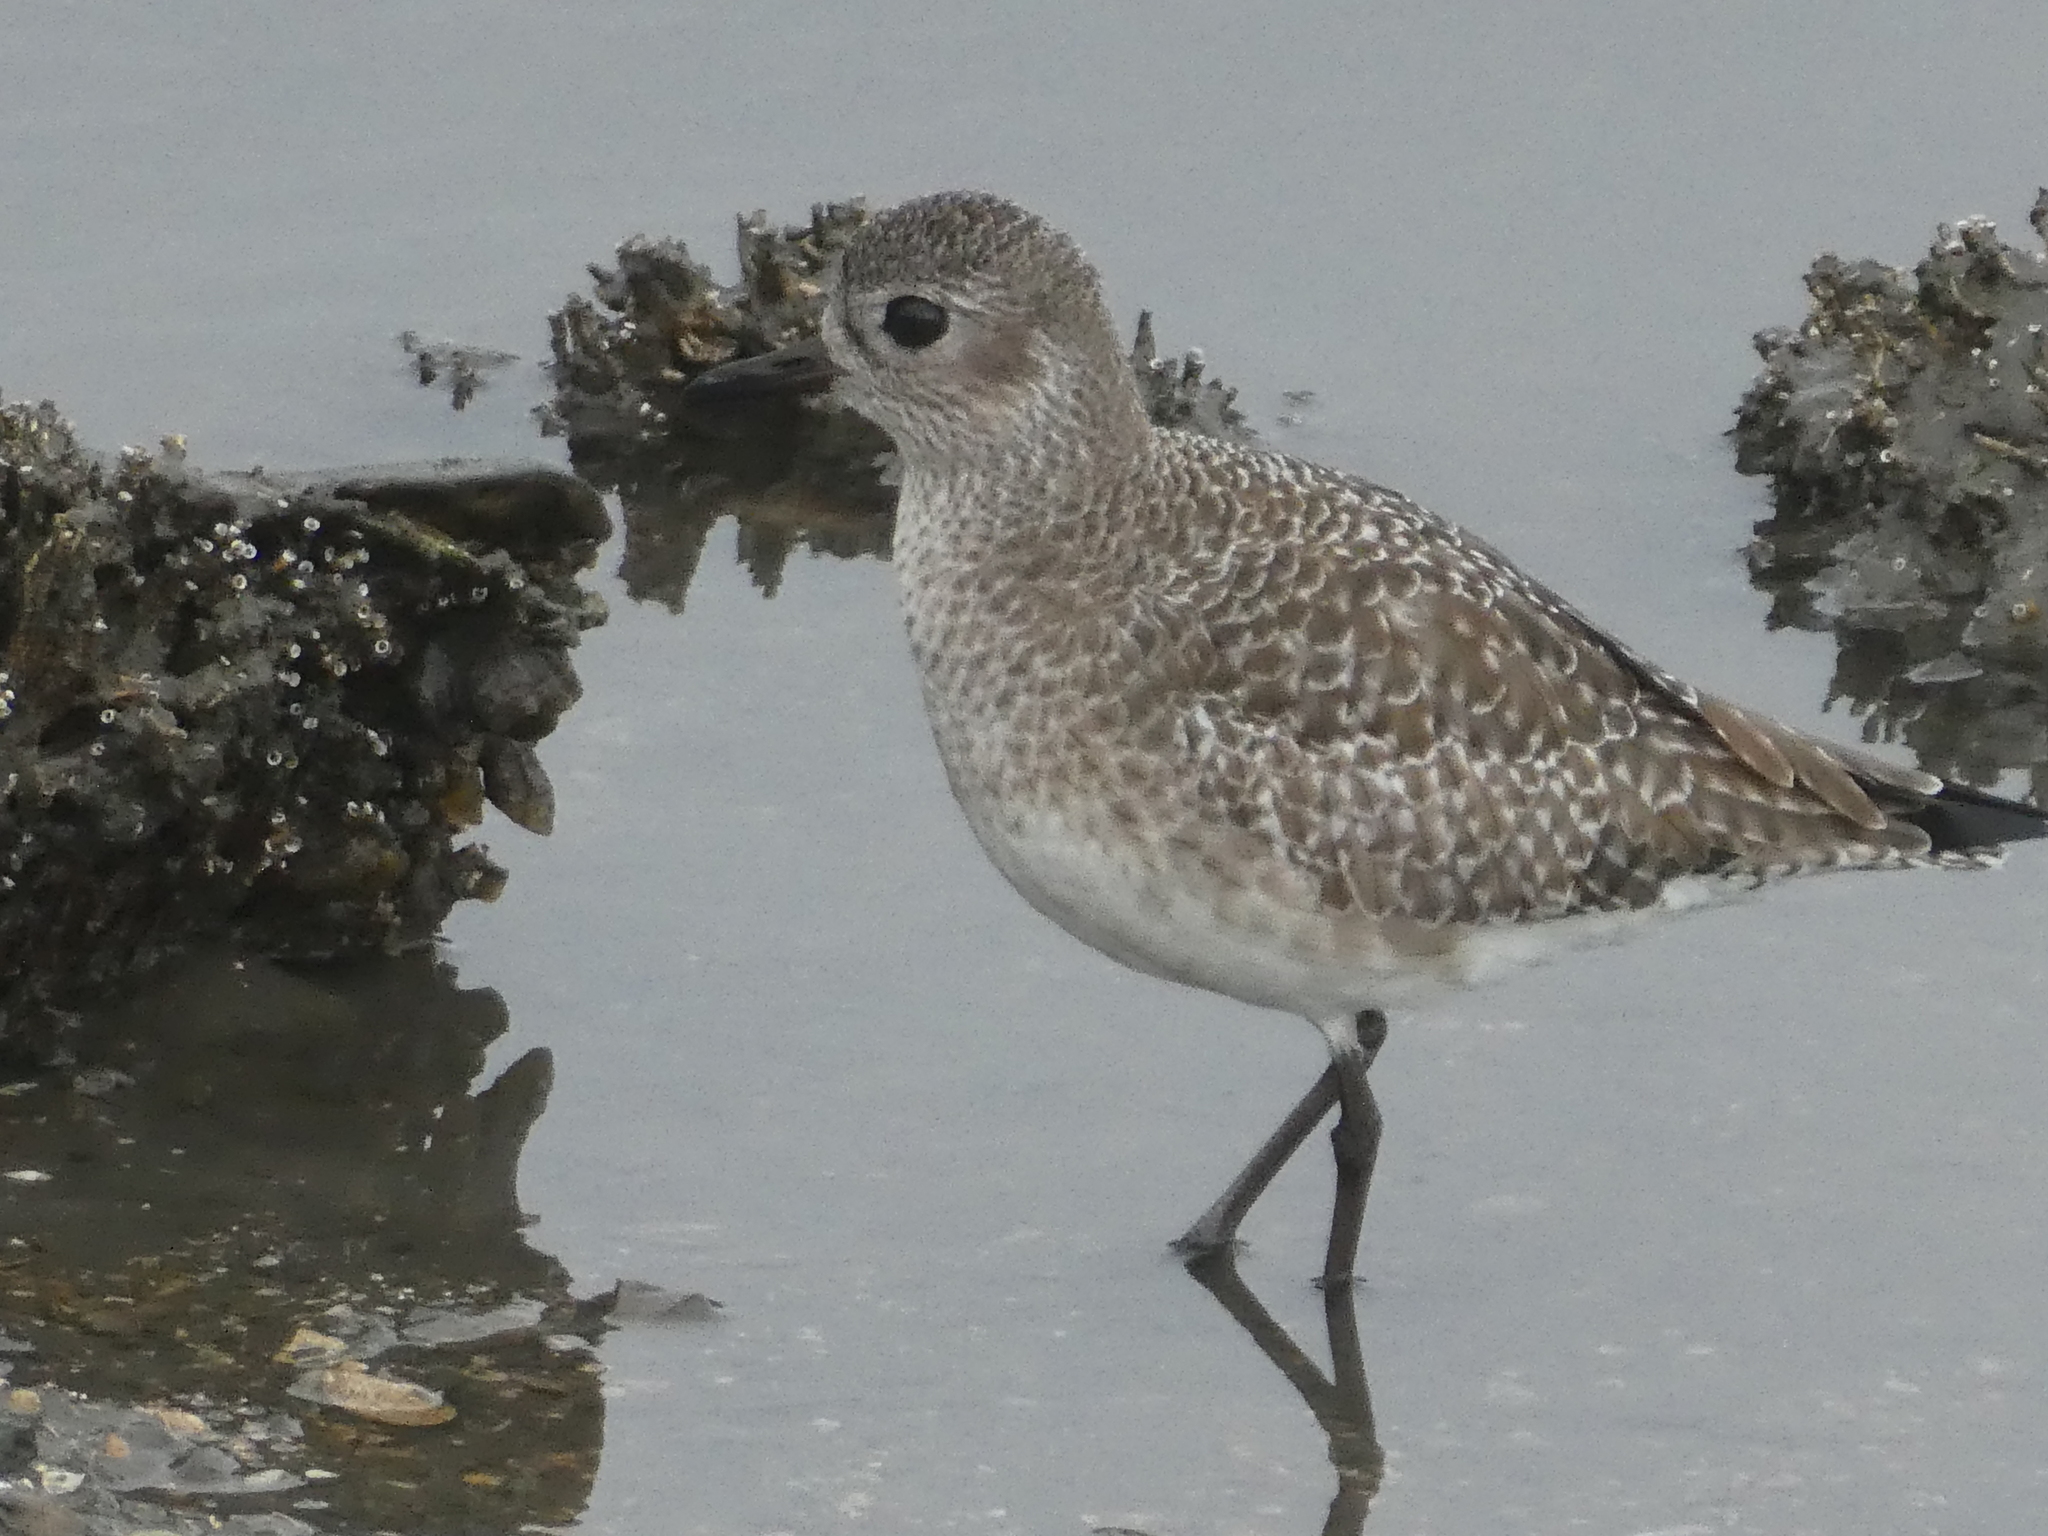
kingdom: Animalia
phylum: Chordata
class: Aves
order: Charadriiformes
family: Charadriidae
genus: Pluvialis
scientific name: Pluvialis squatarola
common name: Grey plover
